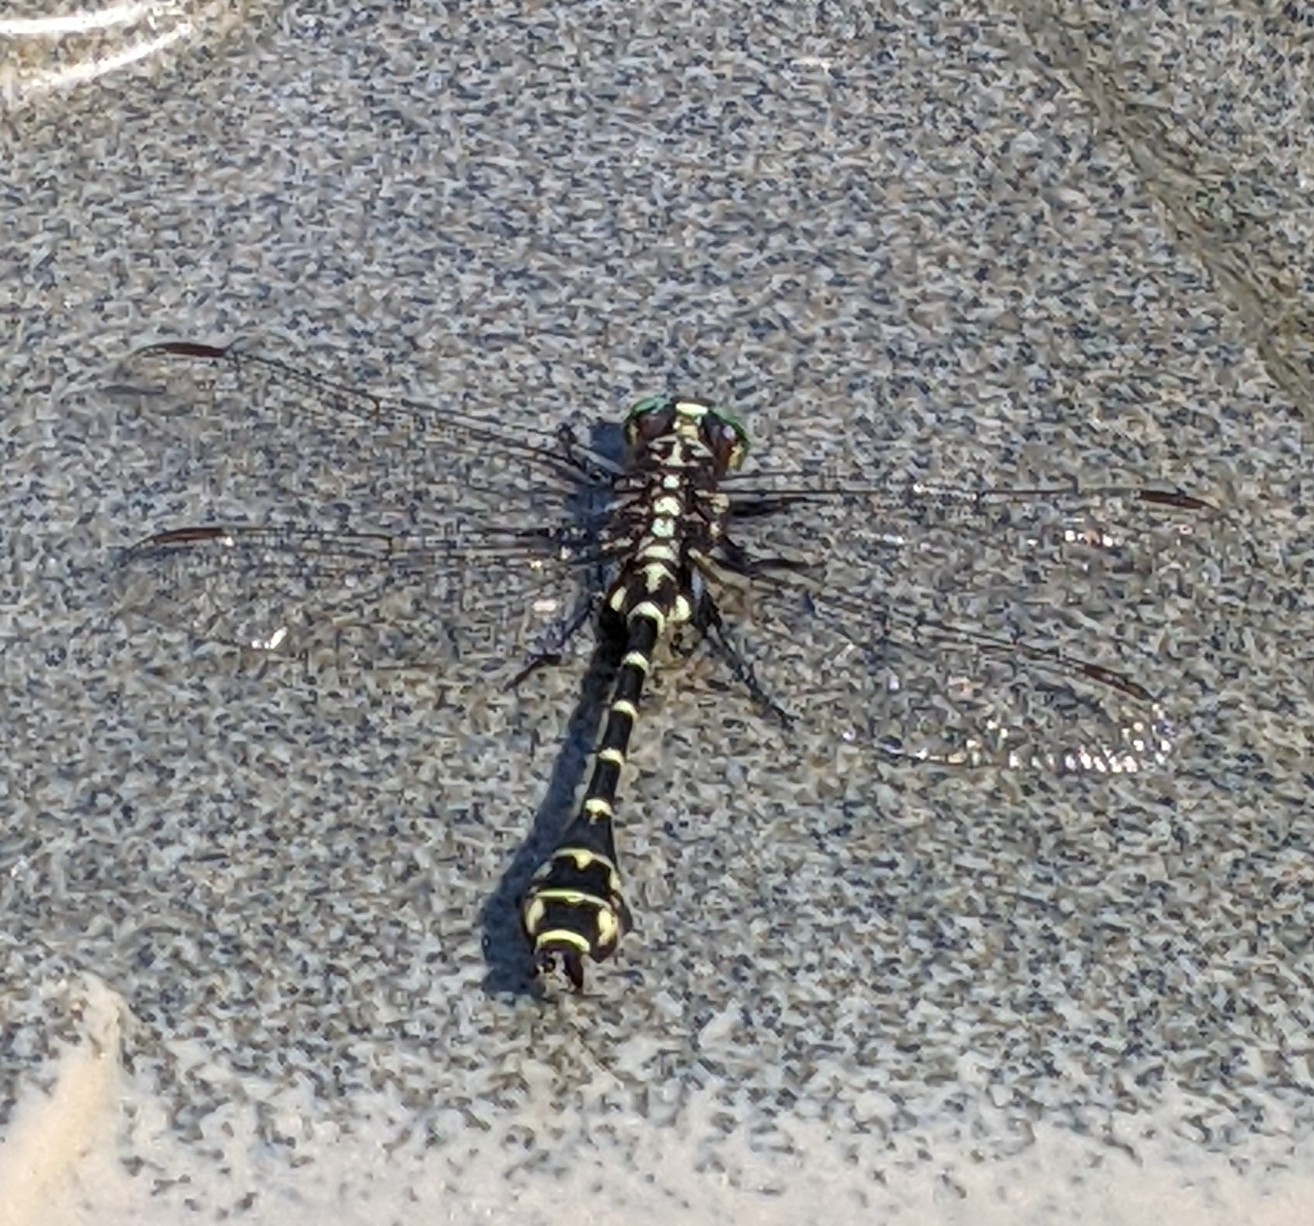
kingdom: Animalia
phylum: Arthropoda
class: Insecta
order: Odonata
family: Gomphidae
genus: Stylurus
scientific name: Stylurus scudderi
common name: Zebra clubtail
